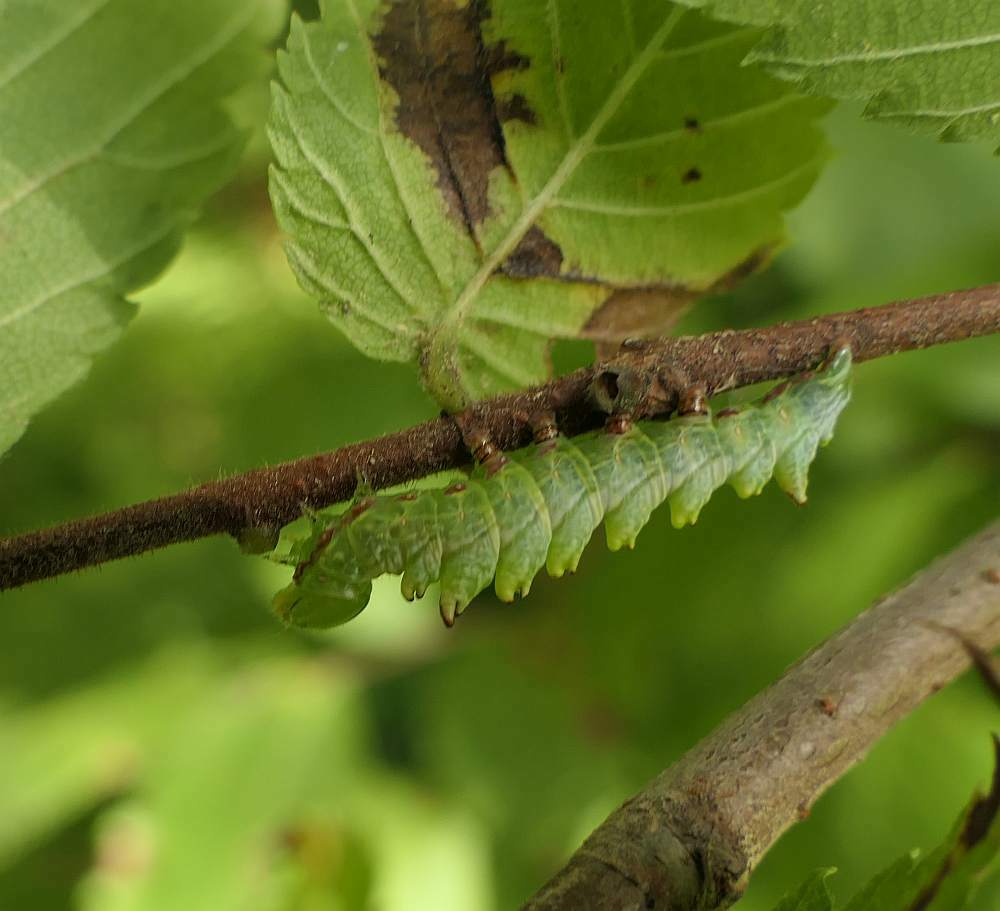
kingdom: Animalia
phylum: Arthropoda
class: Insecta
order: Lepidoptera
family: Notodontidae
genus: Nerice
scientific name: Nerice bidentata
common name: Double-toothed prominent
